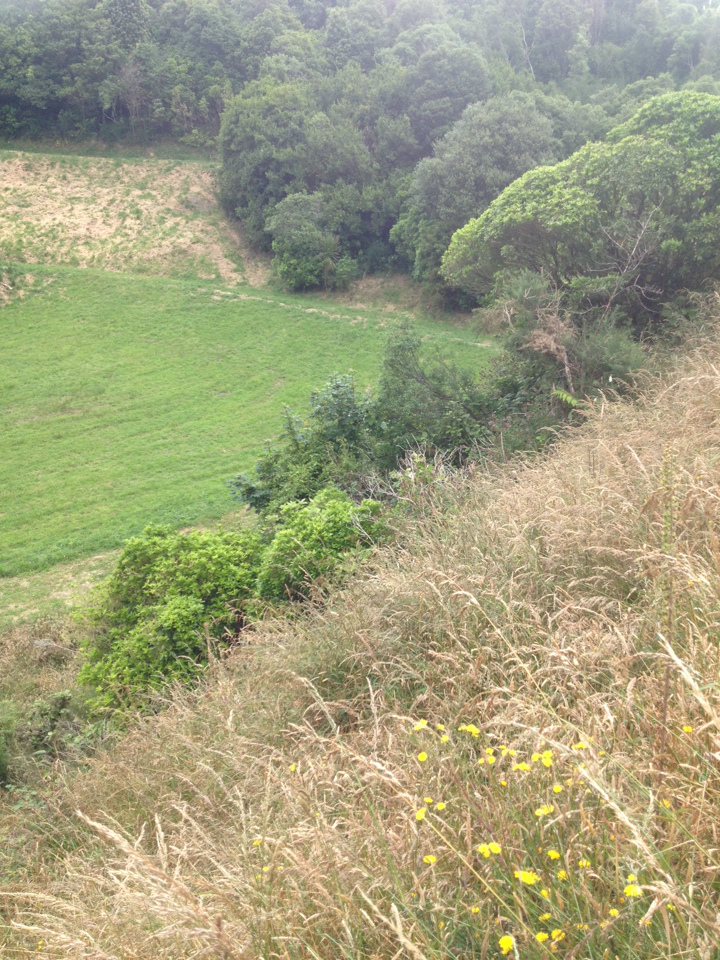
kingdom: Plantae
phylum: Tracheophyta
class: Magnoliopsida
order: Sapindales
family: Sapindaceae
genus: Acer
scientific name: Acer pseudoplatanus
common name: Sycamore
